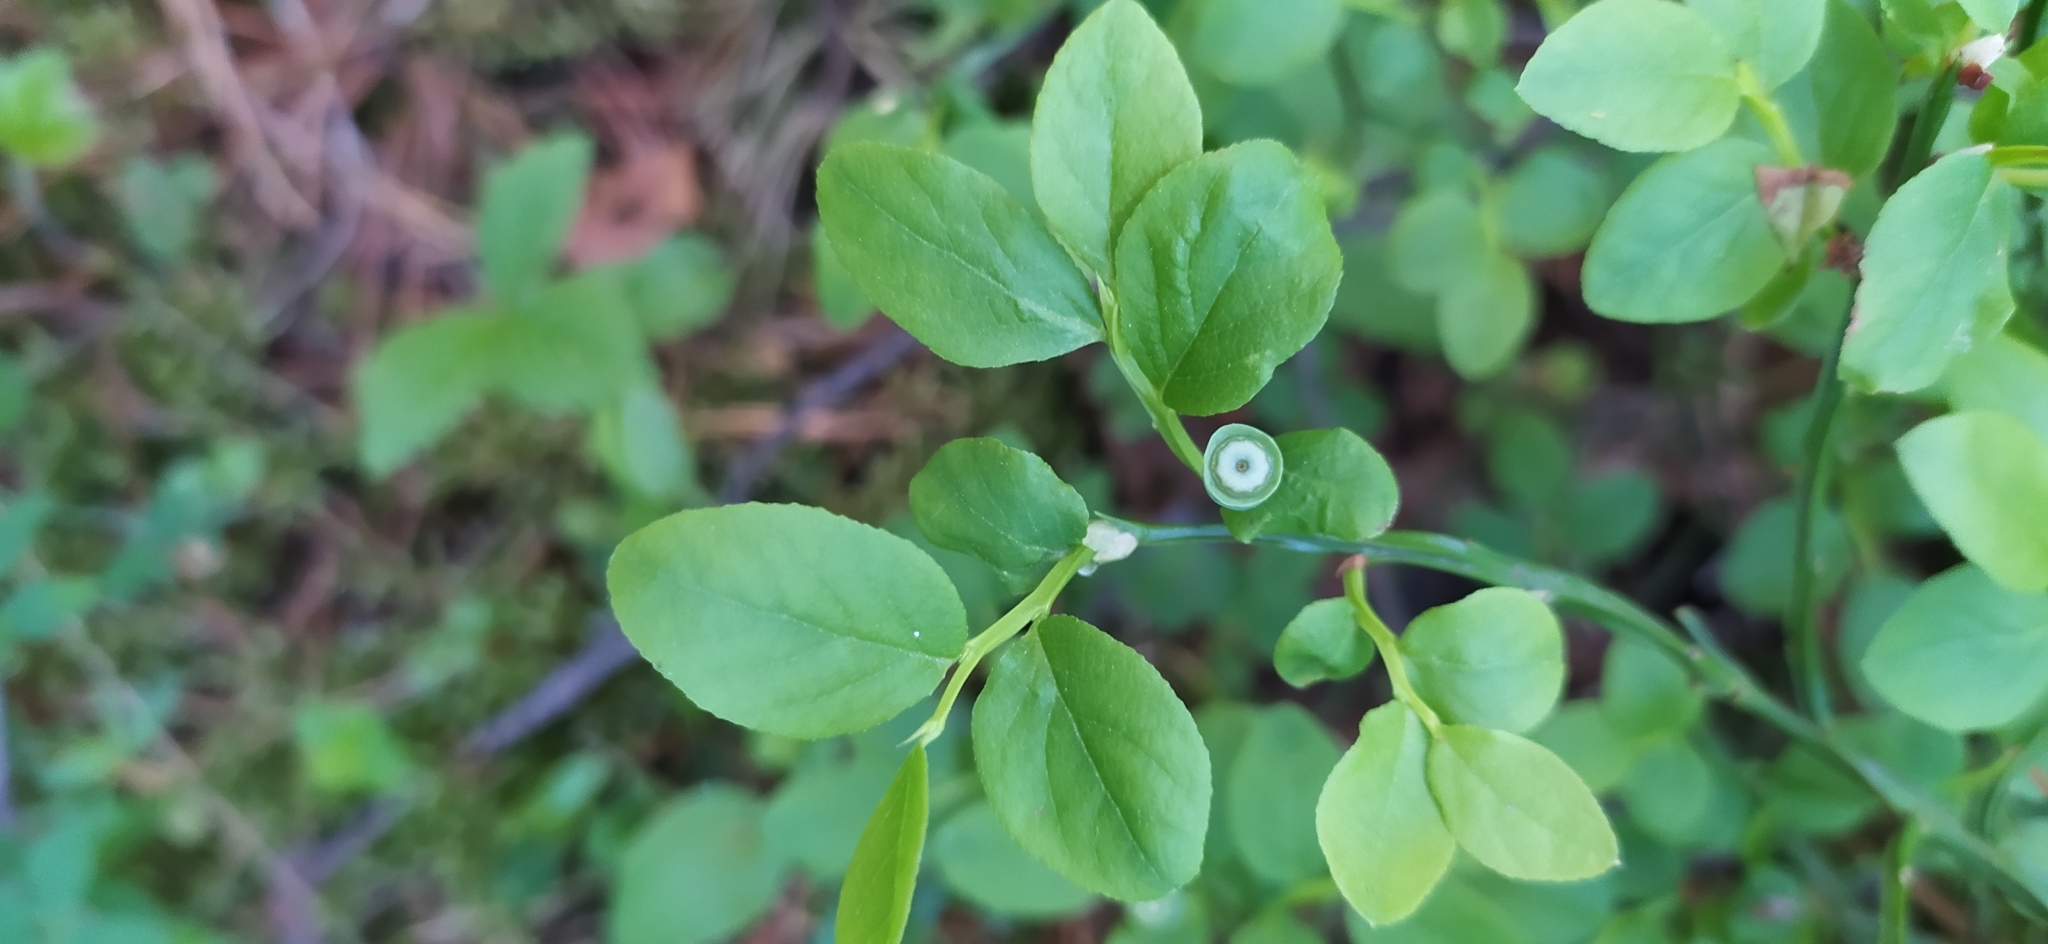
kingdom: Plantae
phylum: Tracheophyta
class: Magnoliopsida
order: Ericales
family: Ericaceae
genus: Vaccinium
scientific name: Vaccinium myrtillus
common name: Bilberry
